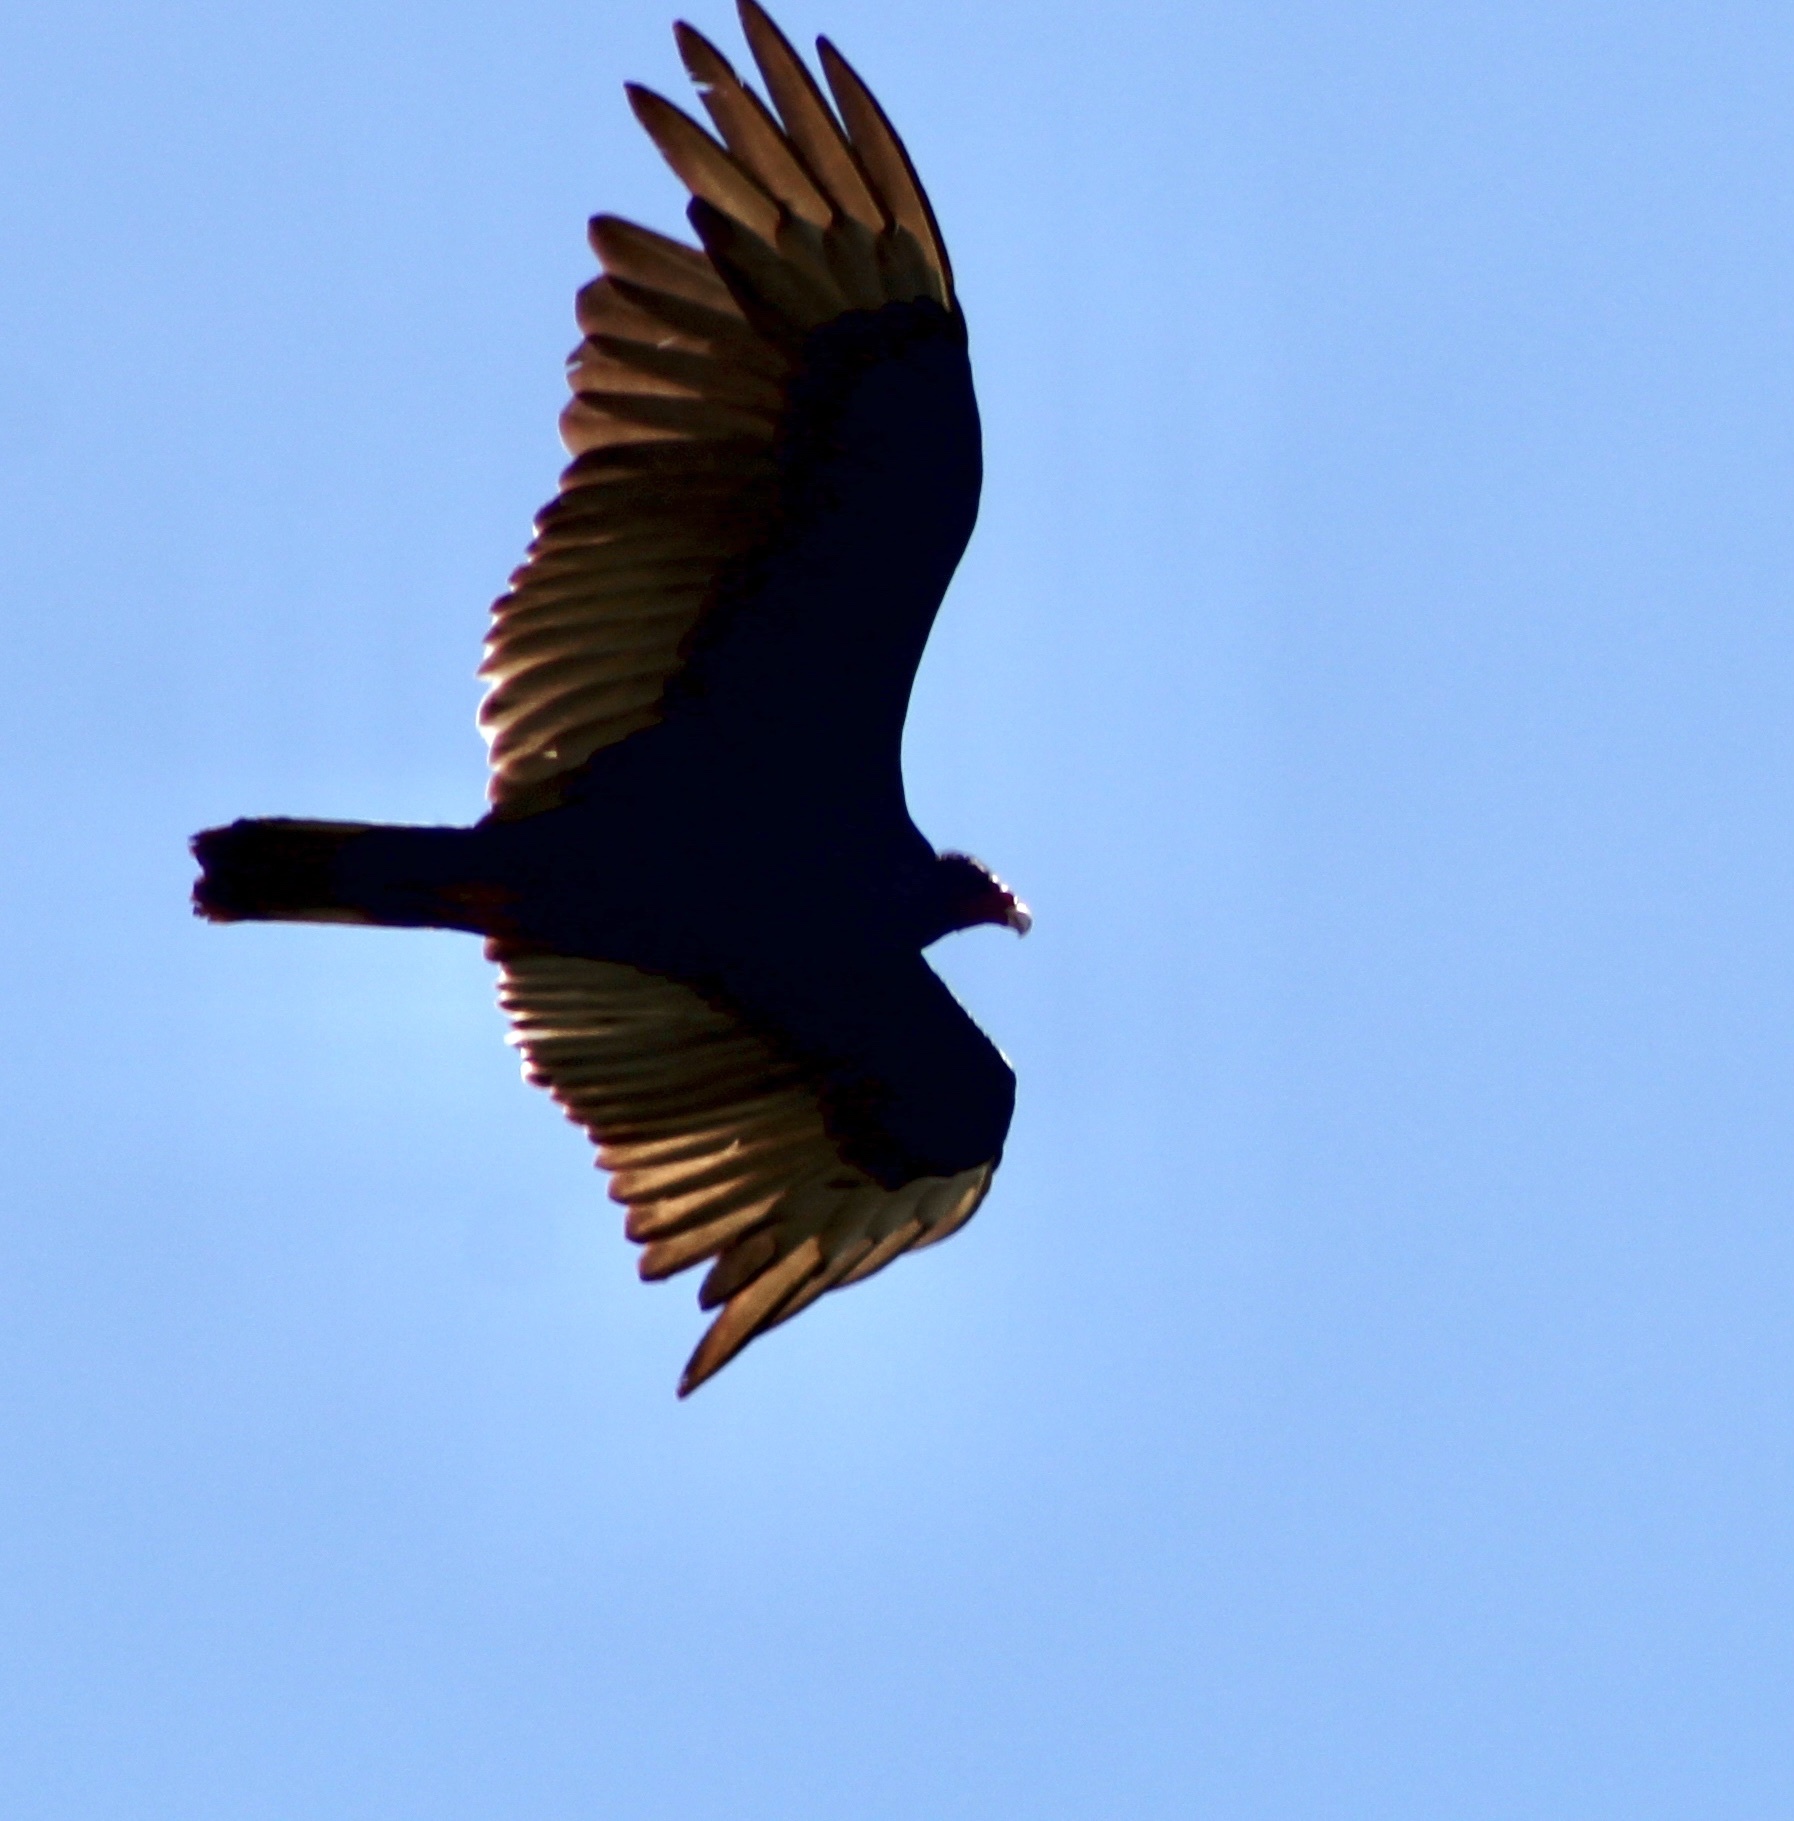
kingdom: Animalia
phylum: Chordata
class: Aves
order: Accipitriformes
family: Cathartidae
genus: Cathartes
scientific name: Cathartes aura
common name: Turkey vulture
